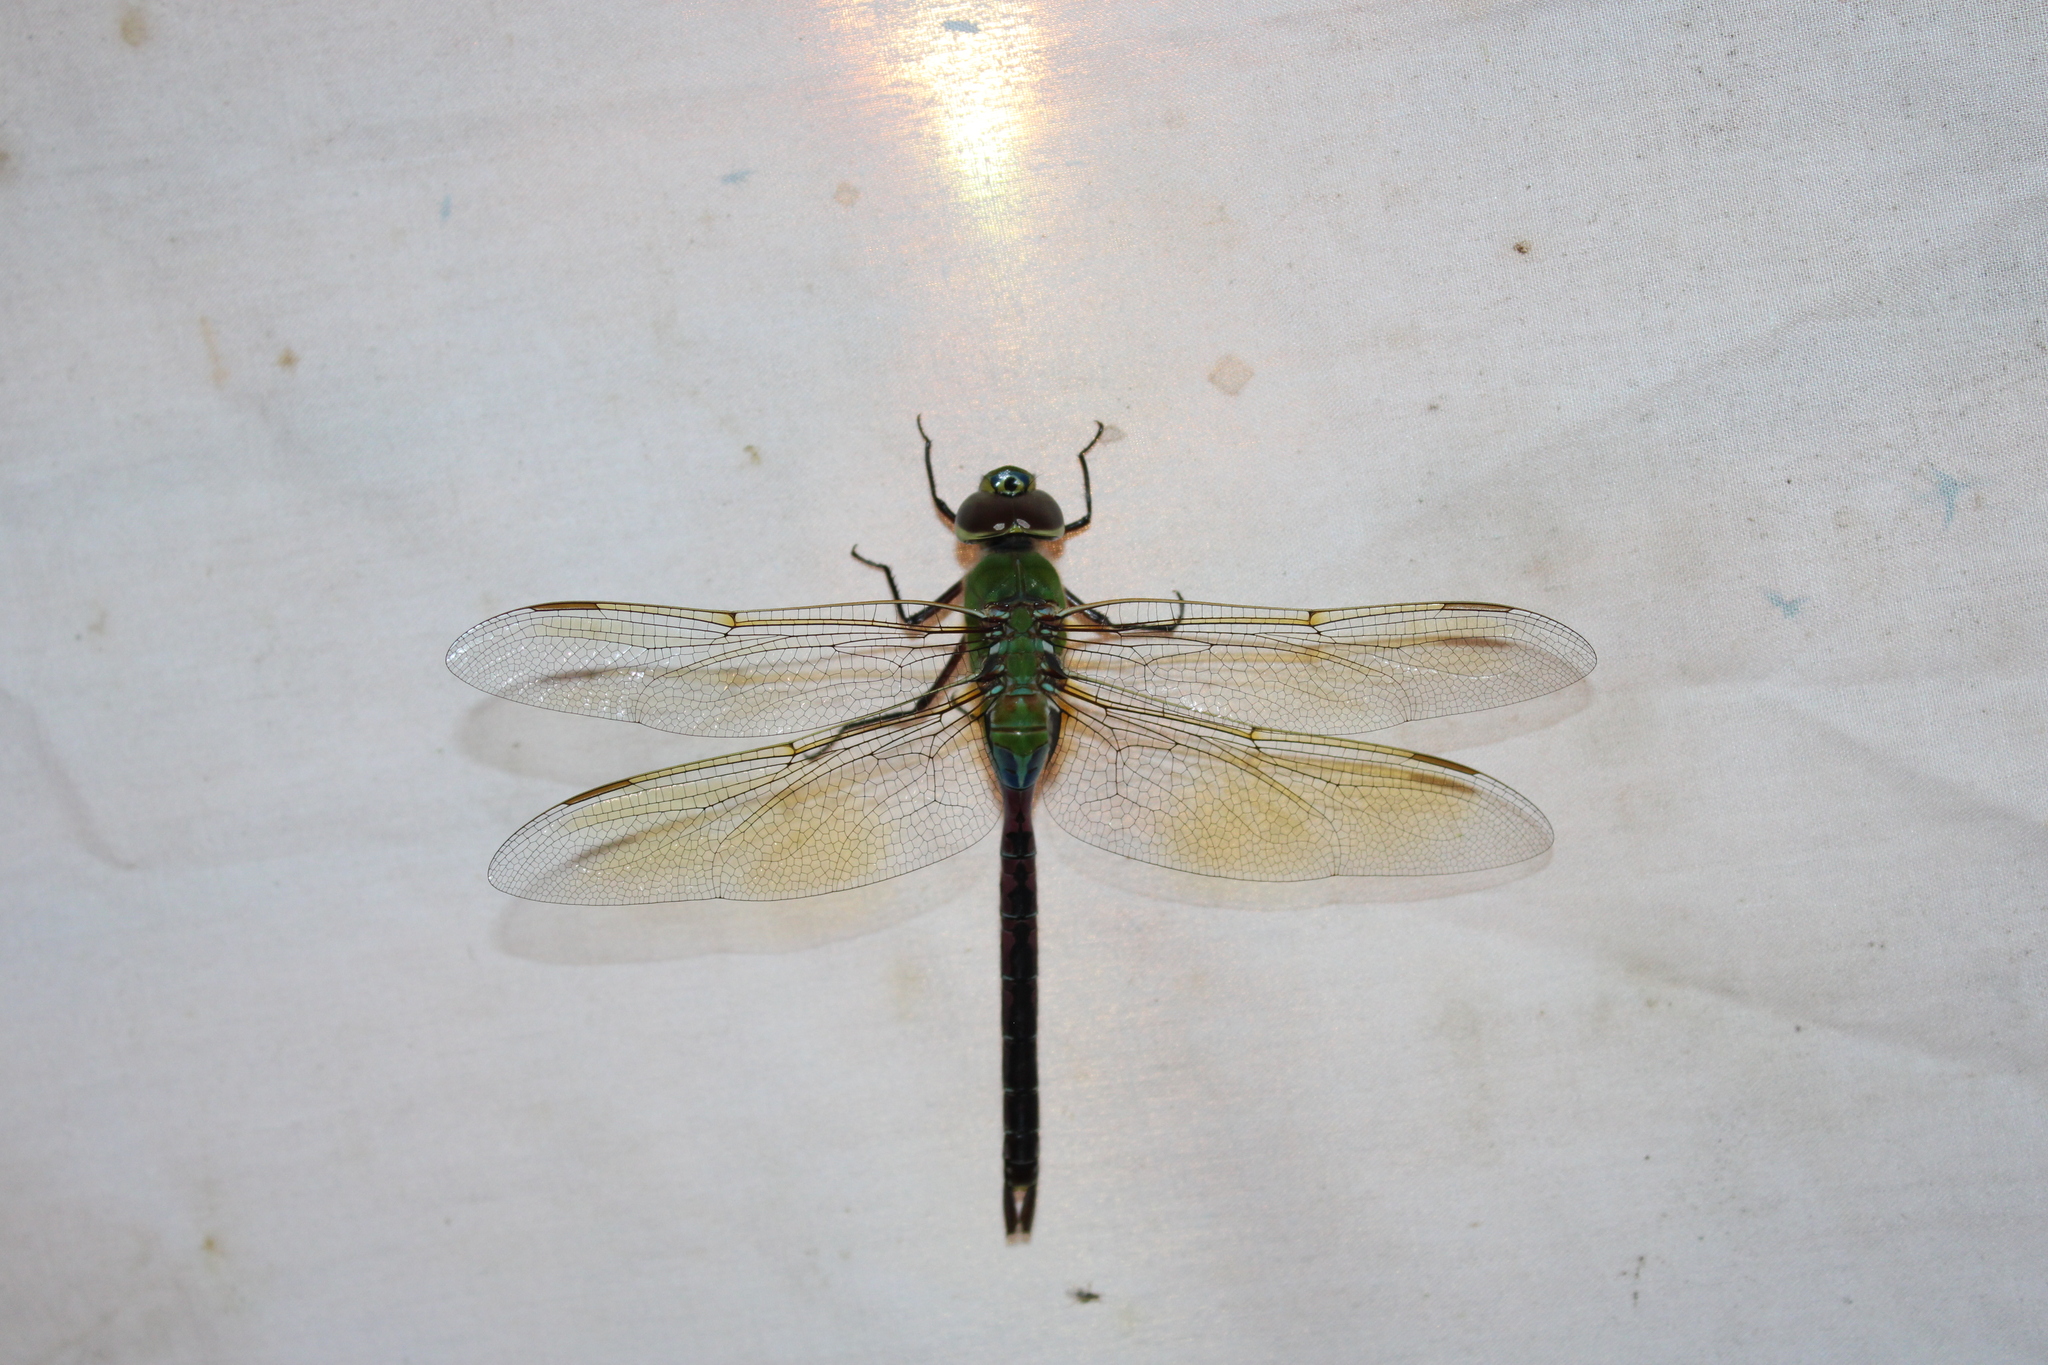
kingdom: Animalia
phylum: Arthropoda
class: Insecta
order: Odonata
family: Aeshnidae
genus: Anax
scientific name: Anax junius
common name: Common green darner
